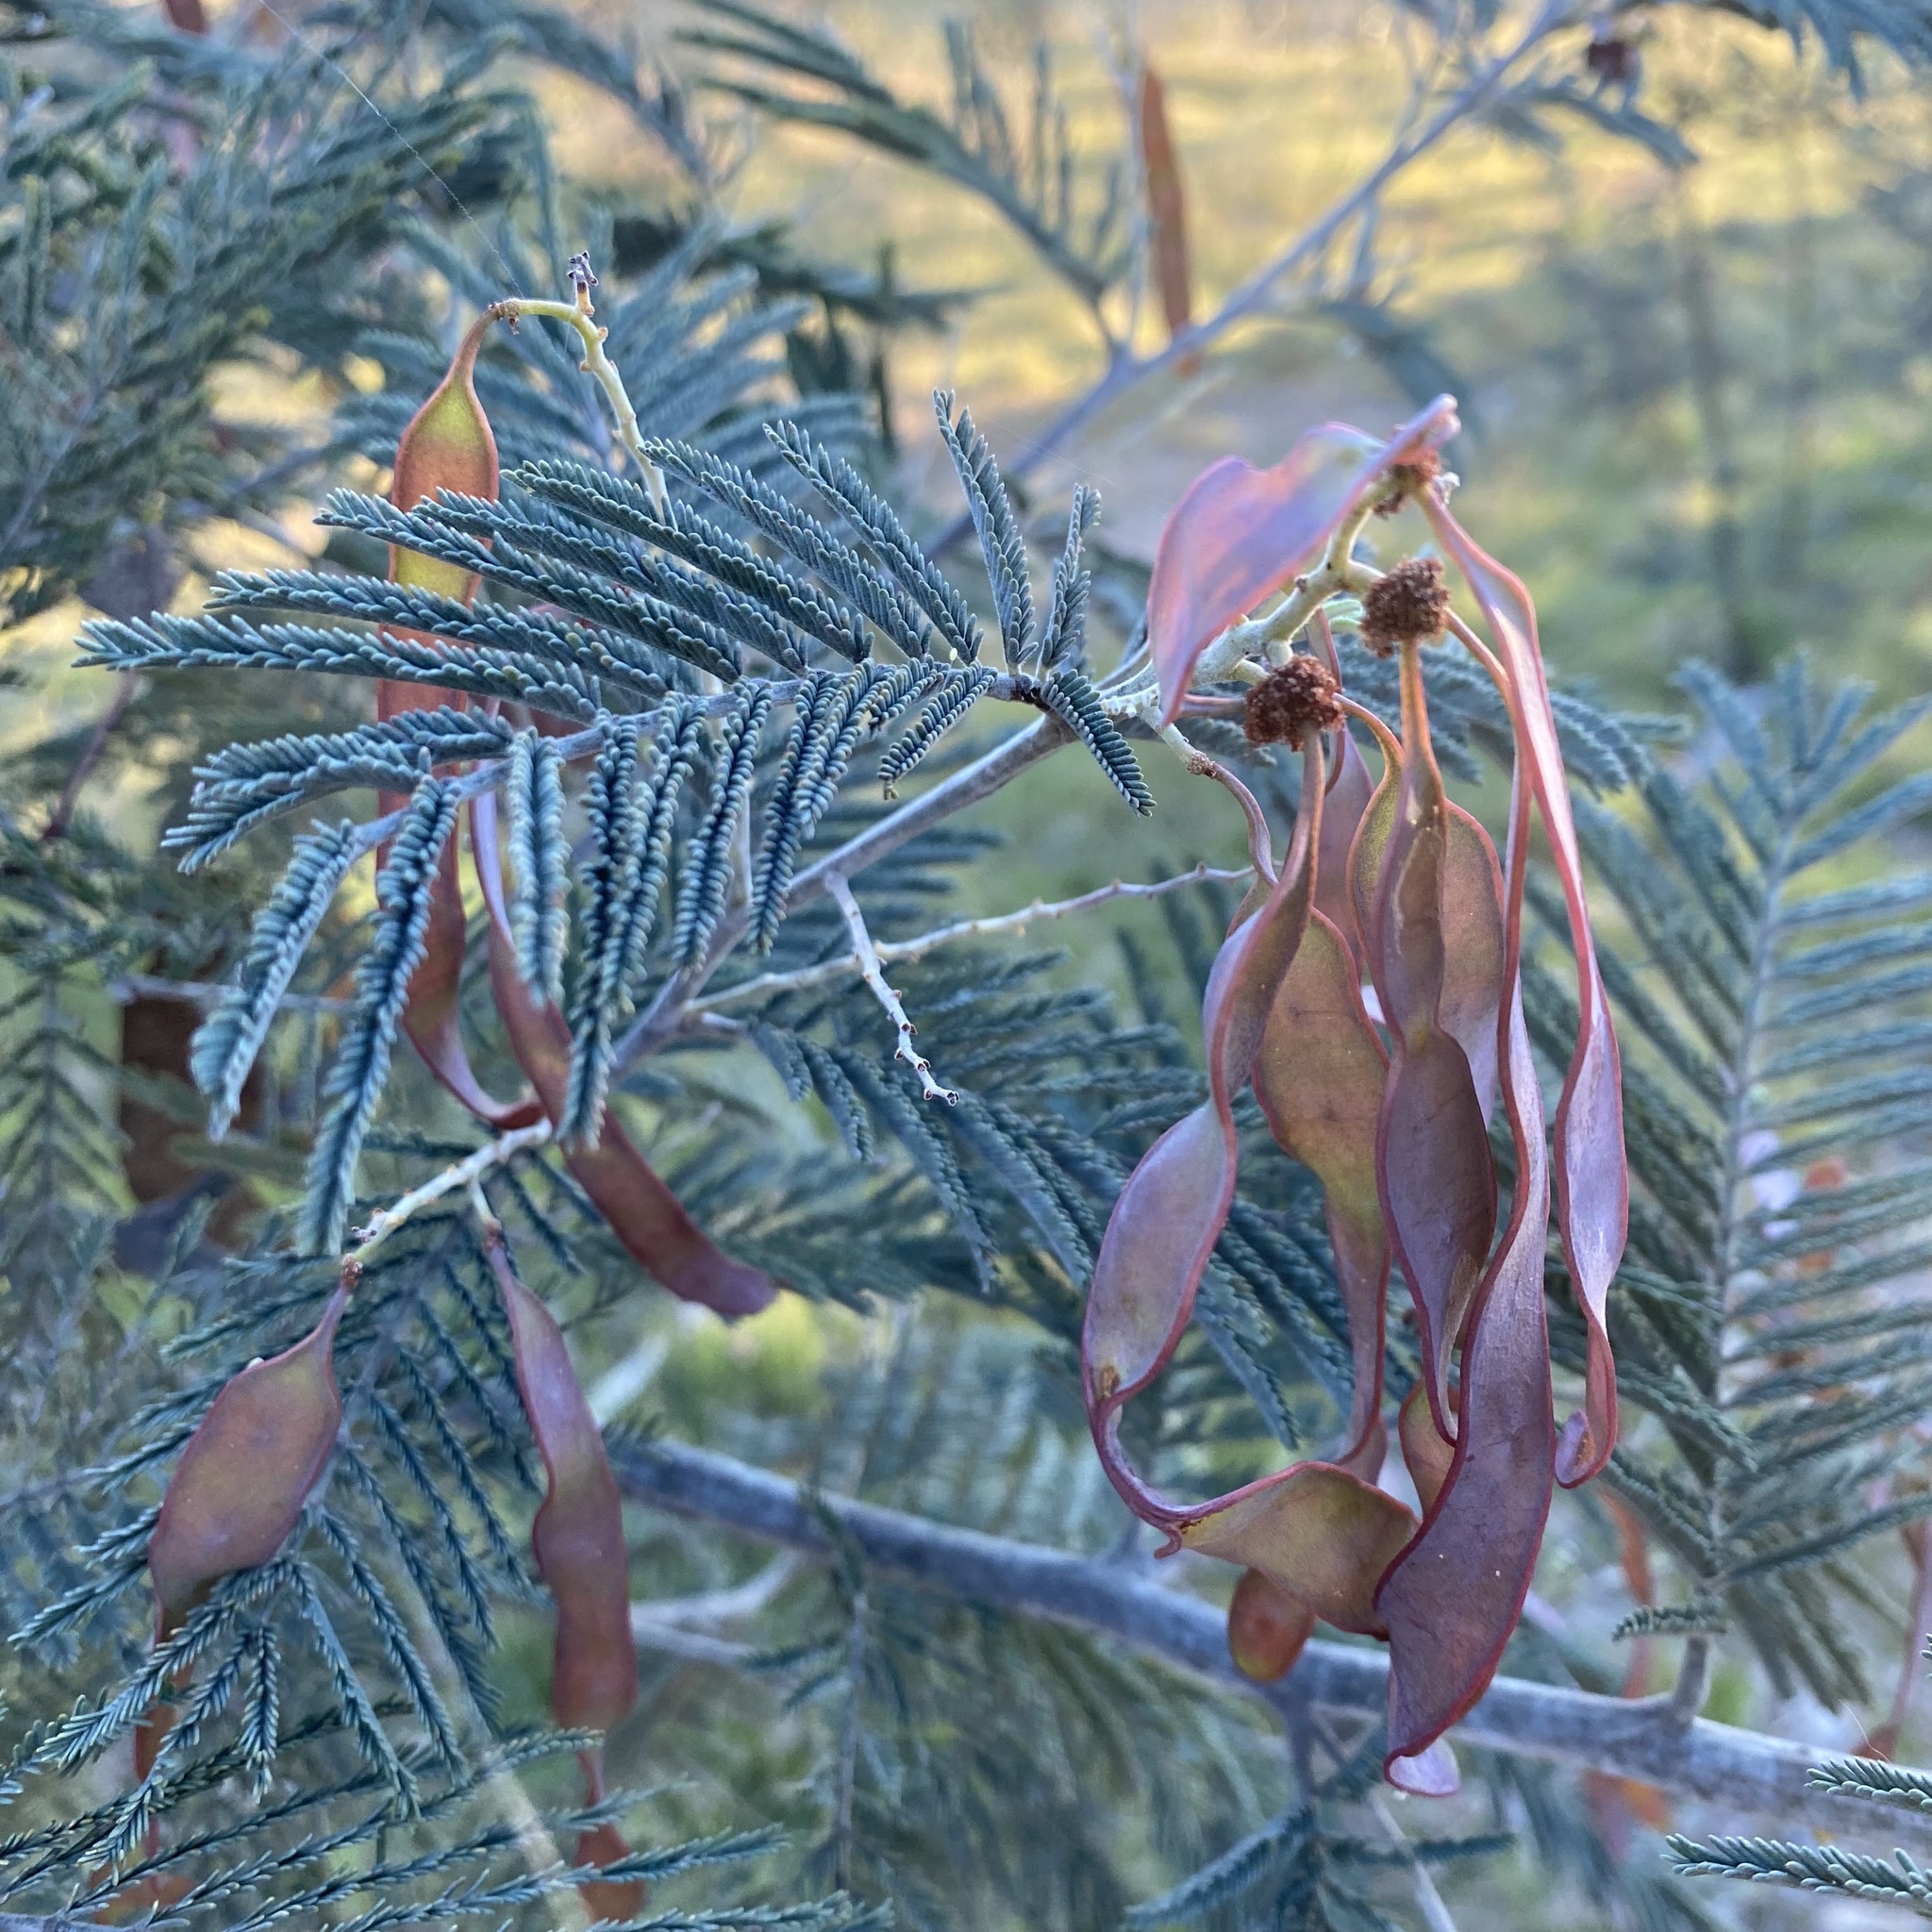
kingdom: Plantae
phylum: Tracheophyta
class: Magnoliopsida
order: Fabales
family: Fabaceae
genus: Acacia
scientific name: Acacia dealbata
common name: Silver wattle
